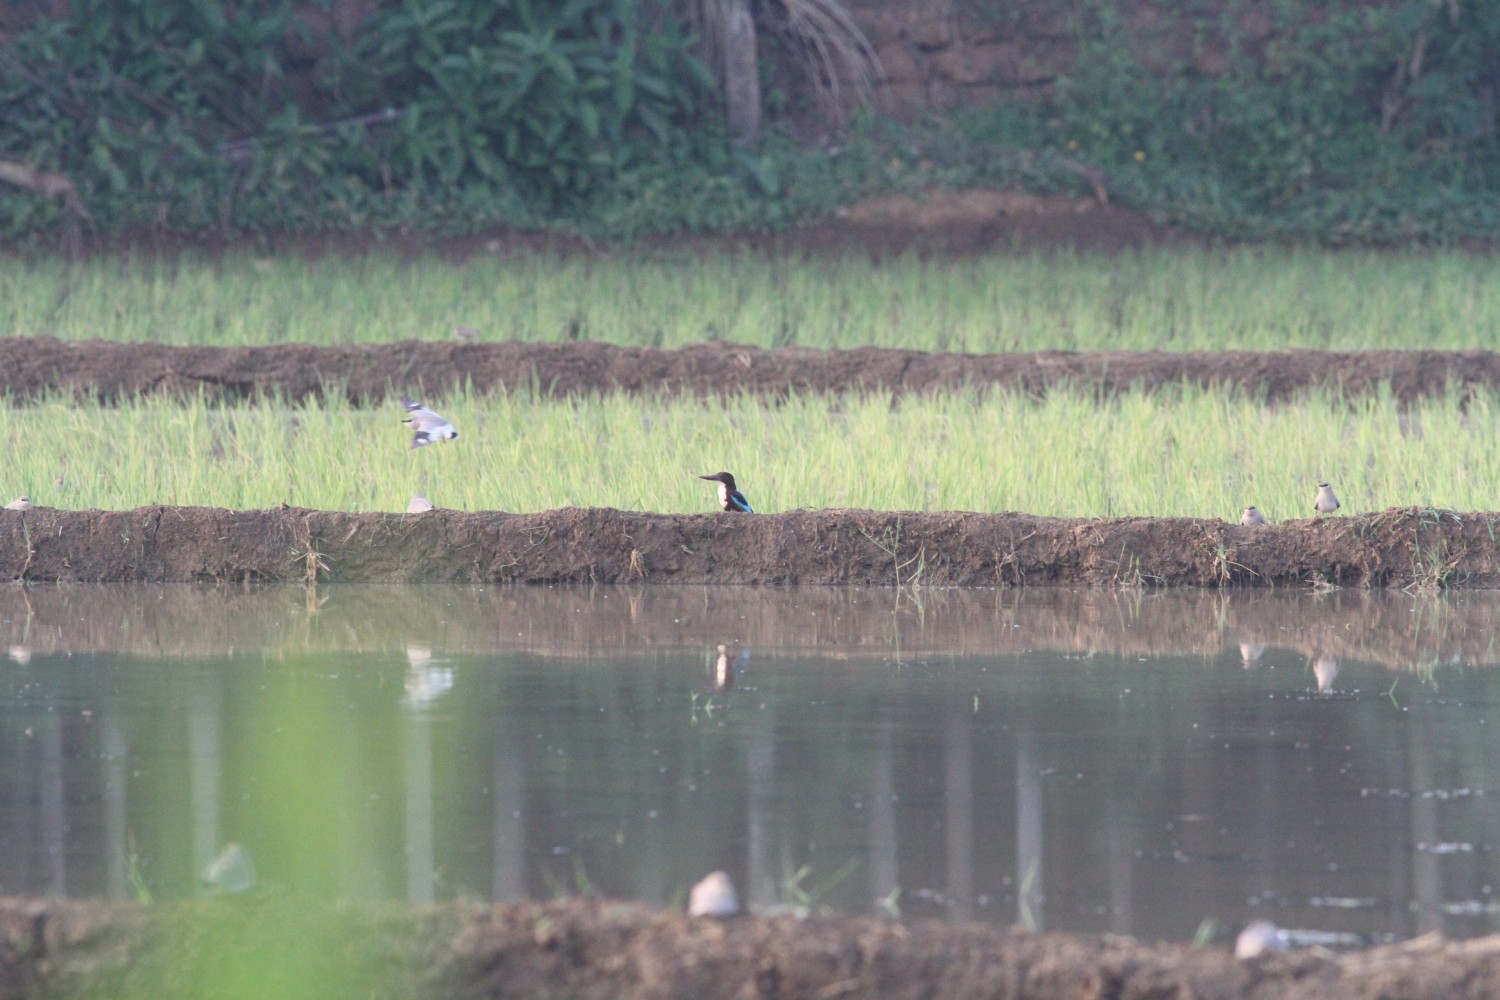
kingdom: Animalia
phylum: Chordata
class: Aves
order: Coraciiformes
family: Alcedinidae
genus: Halcyon
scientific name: Halcyon smyrnensis
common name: White-throated kingfisher
